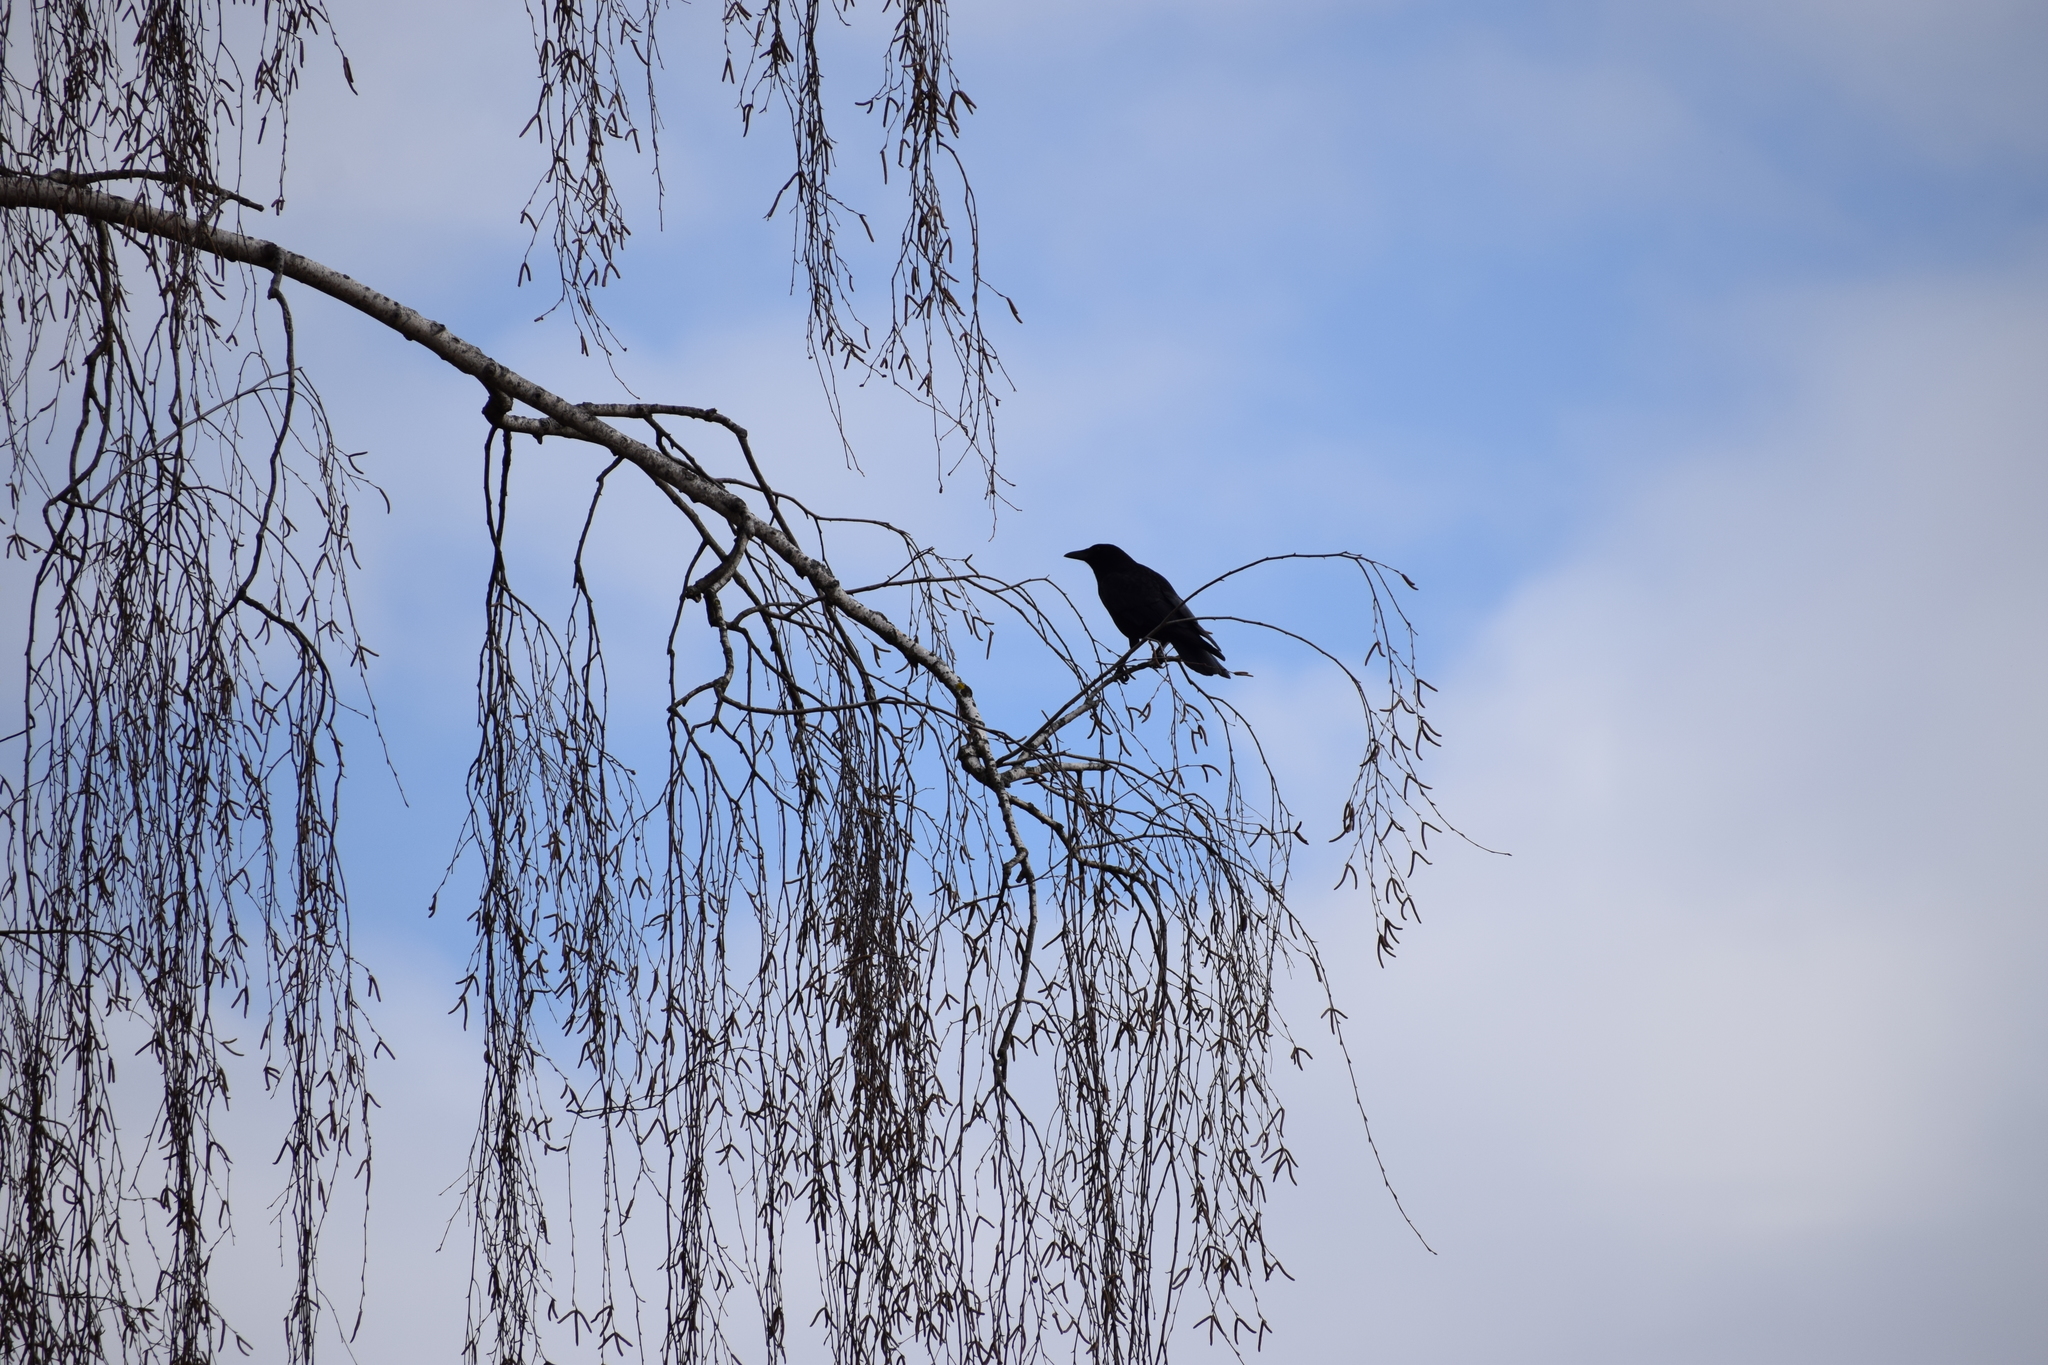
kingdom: Animalia
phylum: Chordata
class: Aves
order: Passeriformes
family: Corvidae
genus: Corvus
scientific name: Corvus corone
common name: Carrion crow
